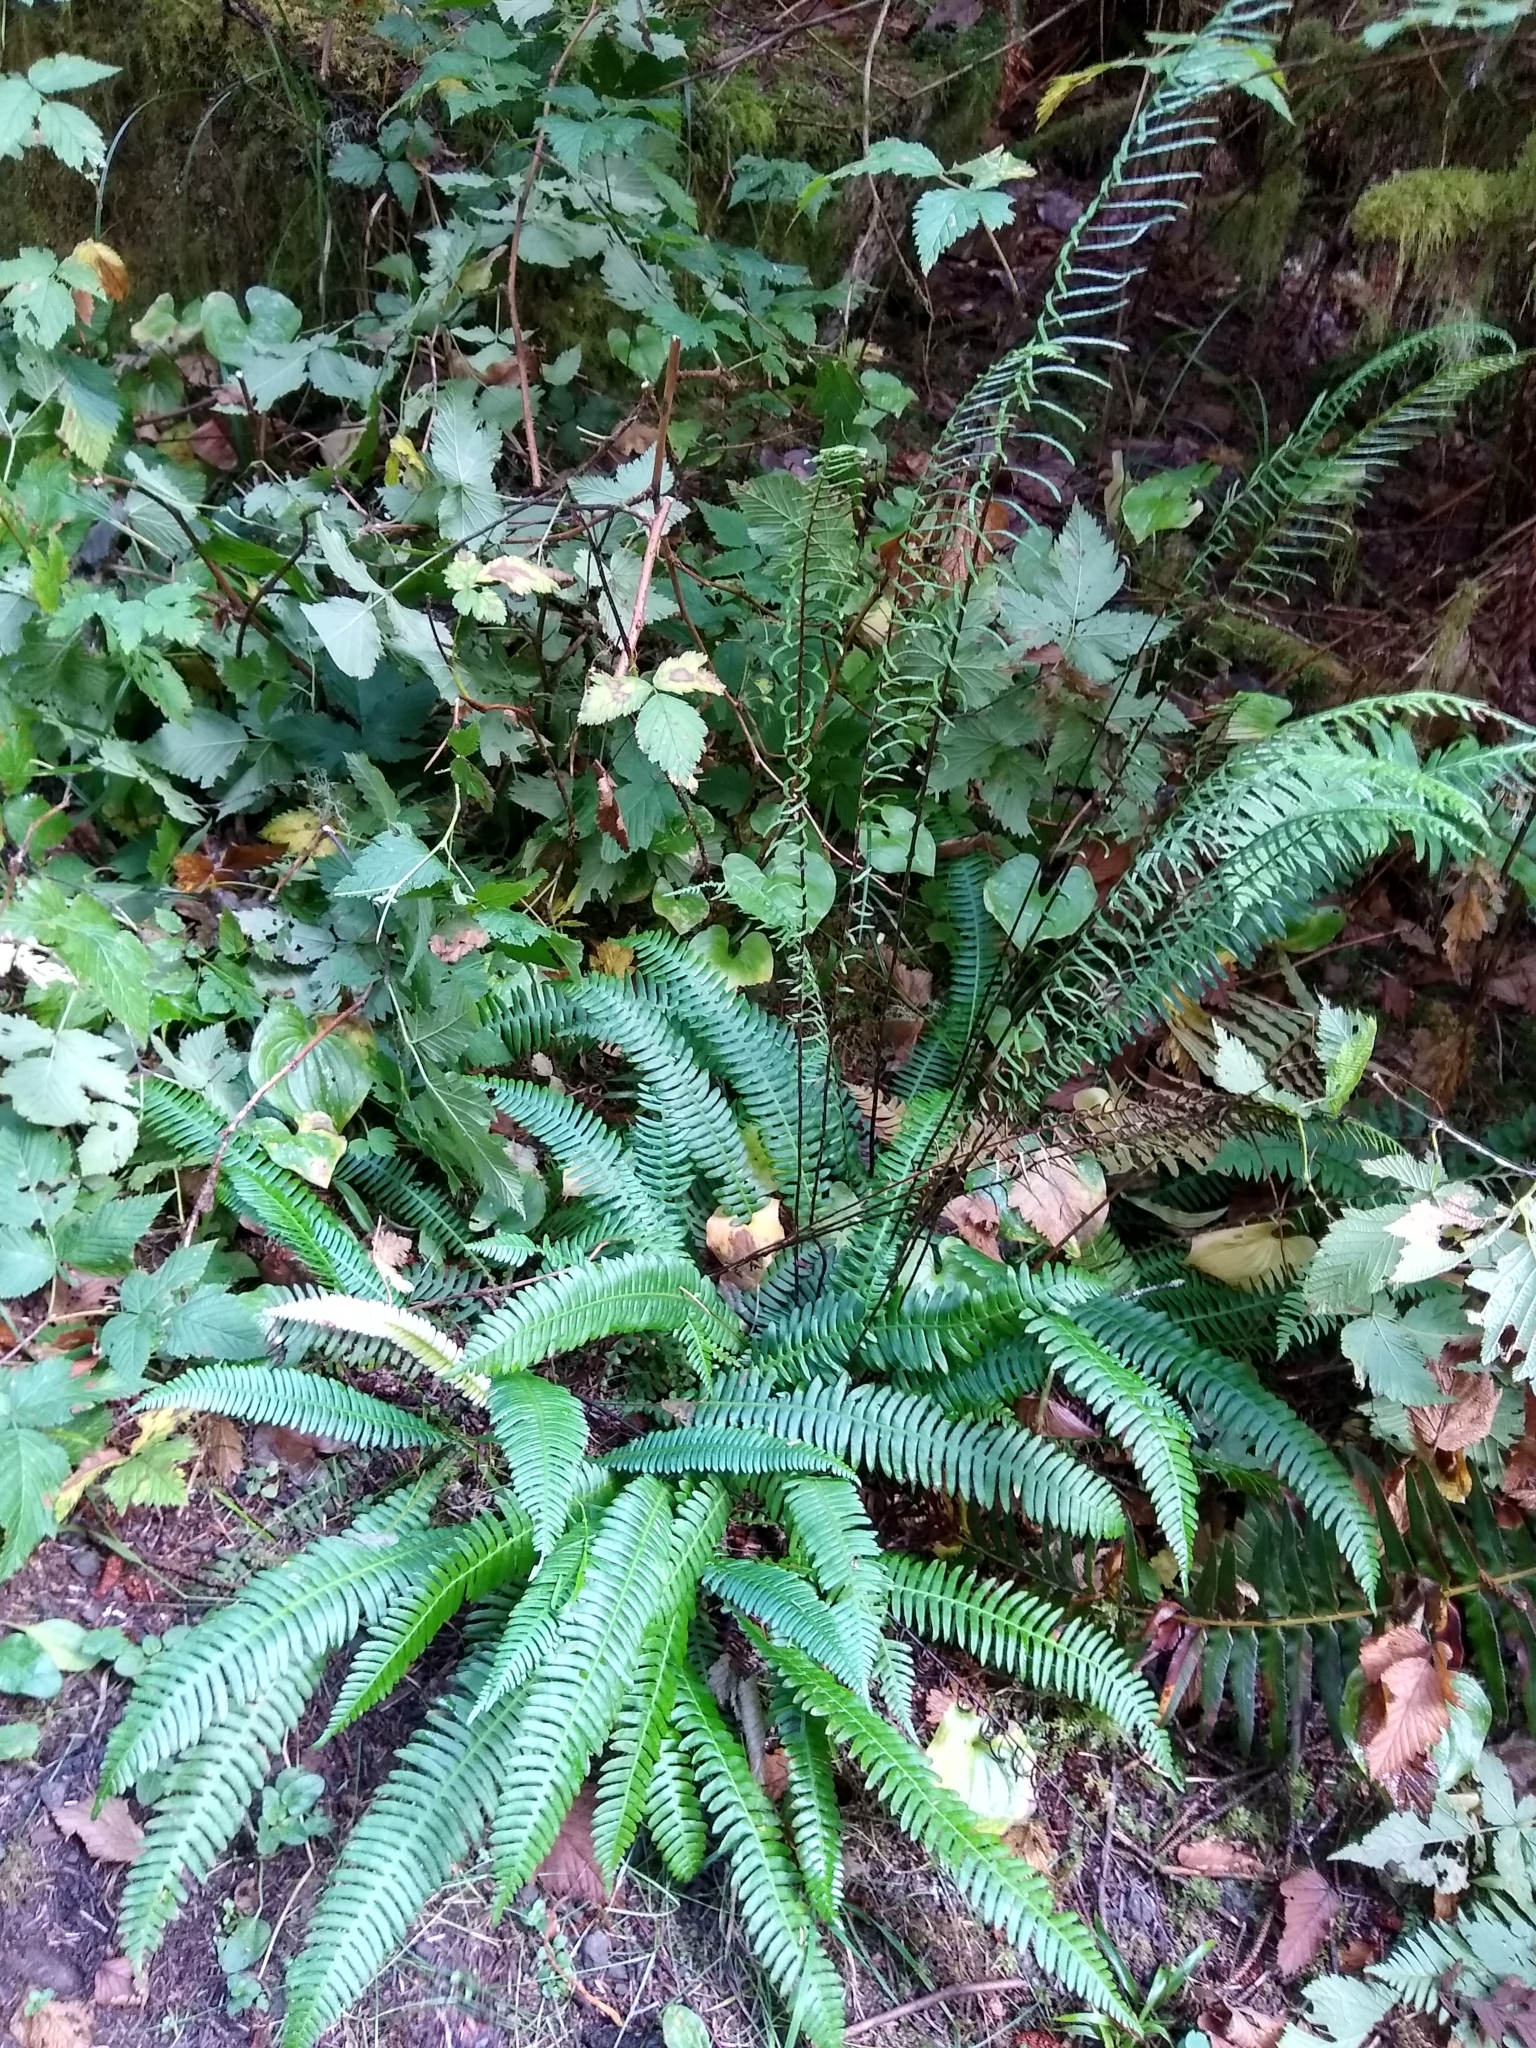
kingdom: Plantae
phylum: Tracheophyta
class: Polypodiopsida
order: Polypodiales
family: Blechnaceae
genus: Struthiopteris
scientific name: Struthiopteris spicant
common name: Deer fern
